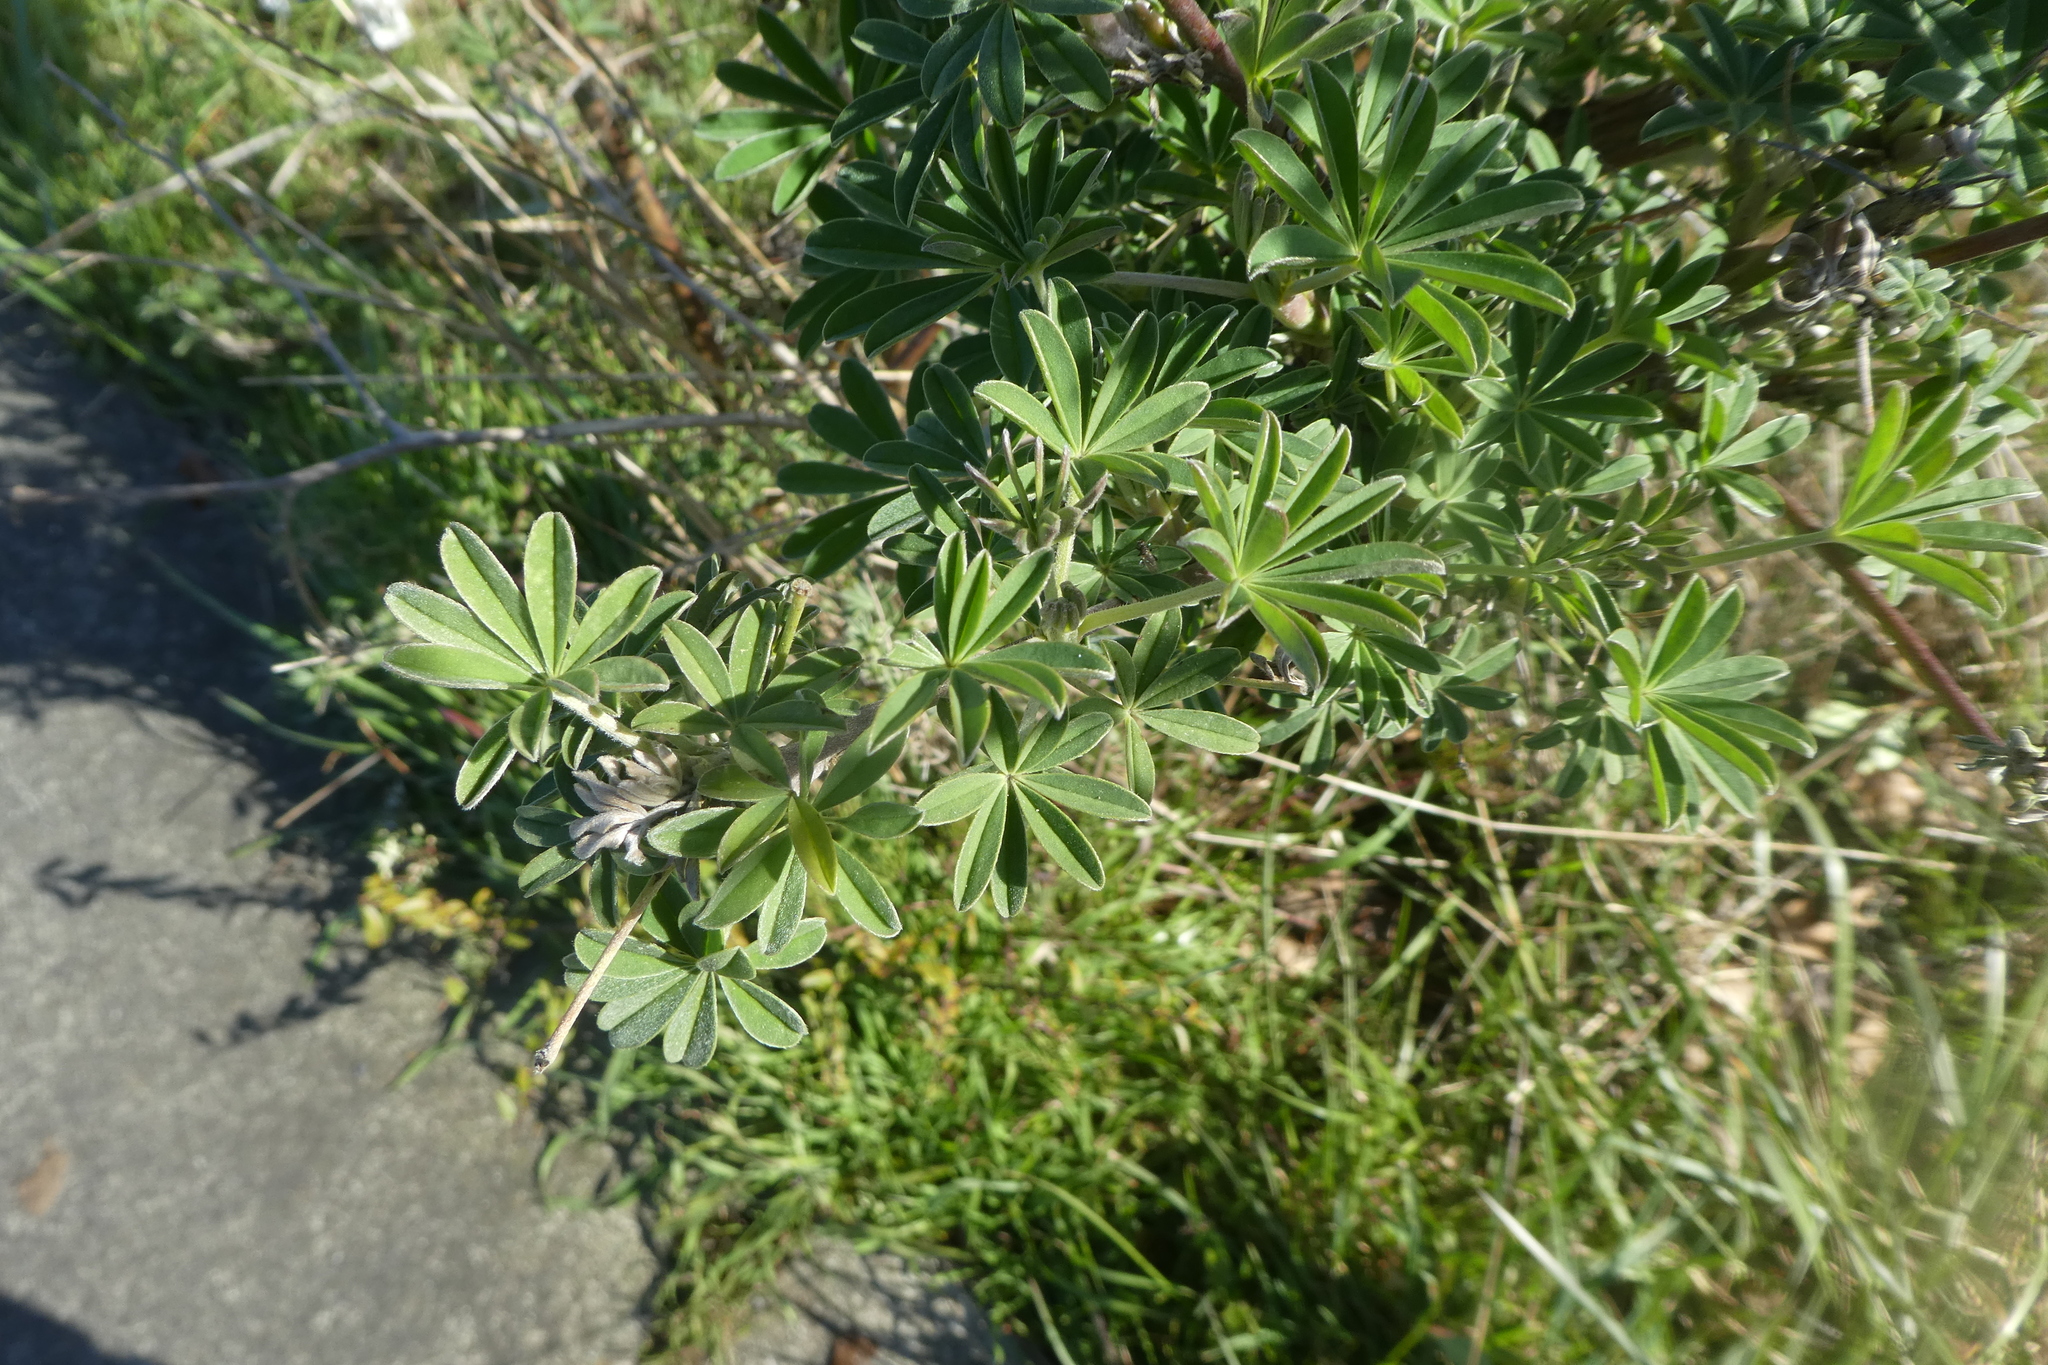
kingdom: Plantae
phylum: Tracheophyta
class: Magnoliopsida
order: Fabales
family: Fabaceae
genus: Lupinus
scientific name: Lupinus arboreus
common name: Yellow bush lupine
